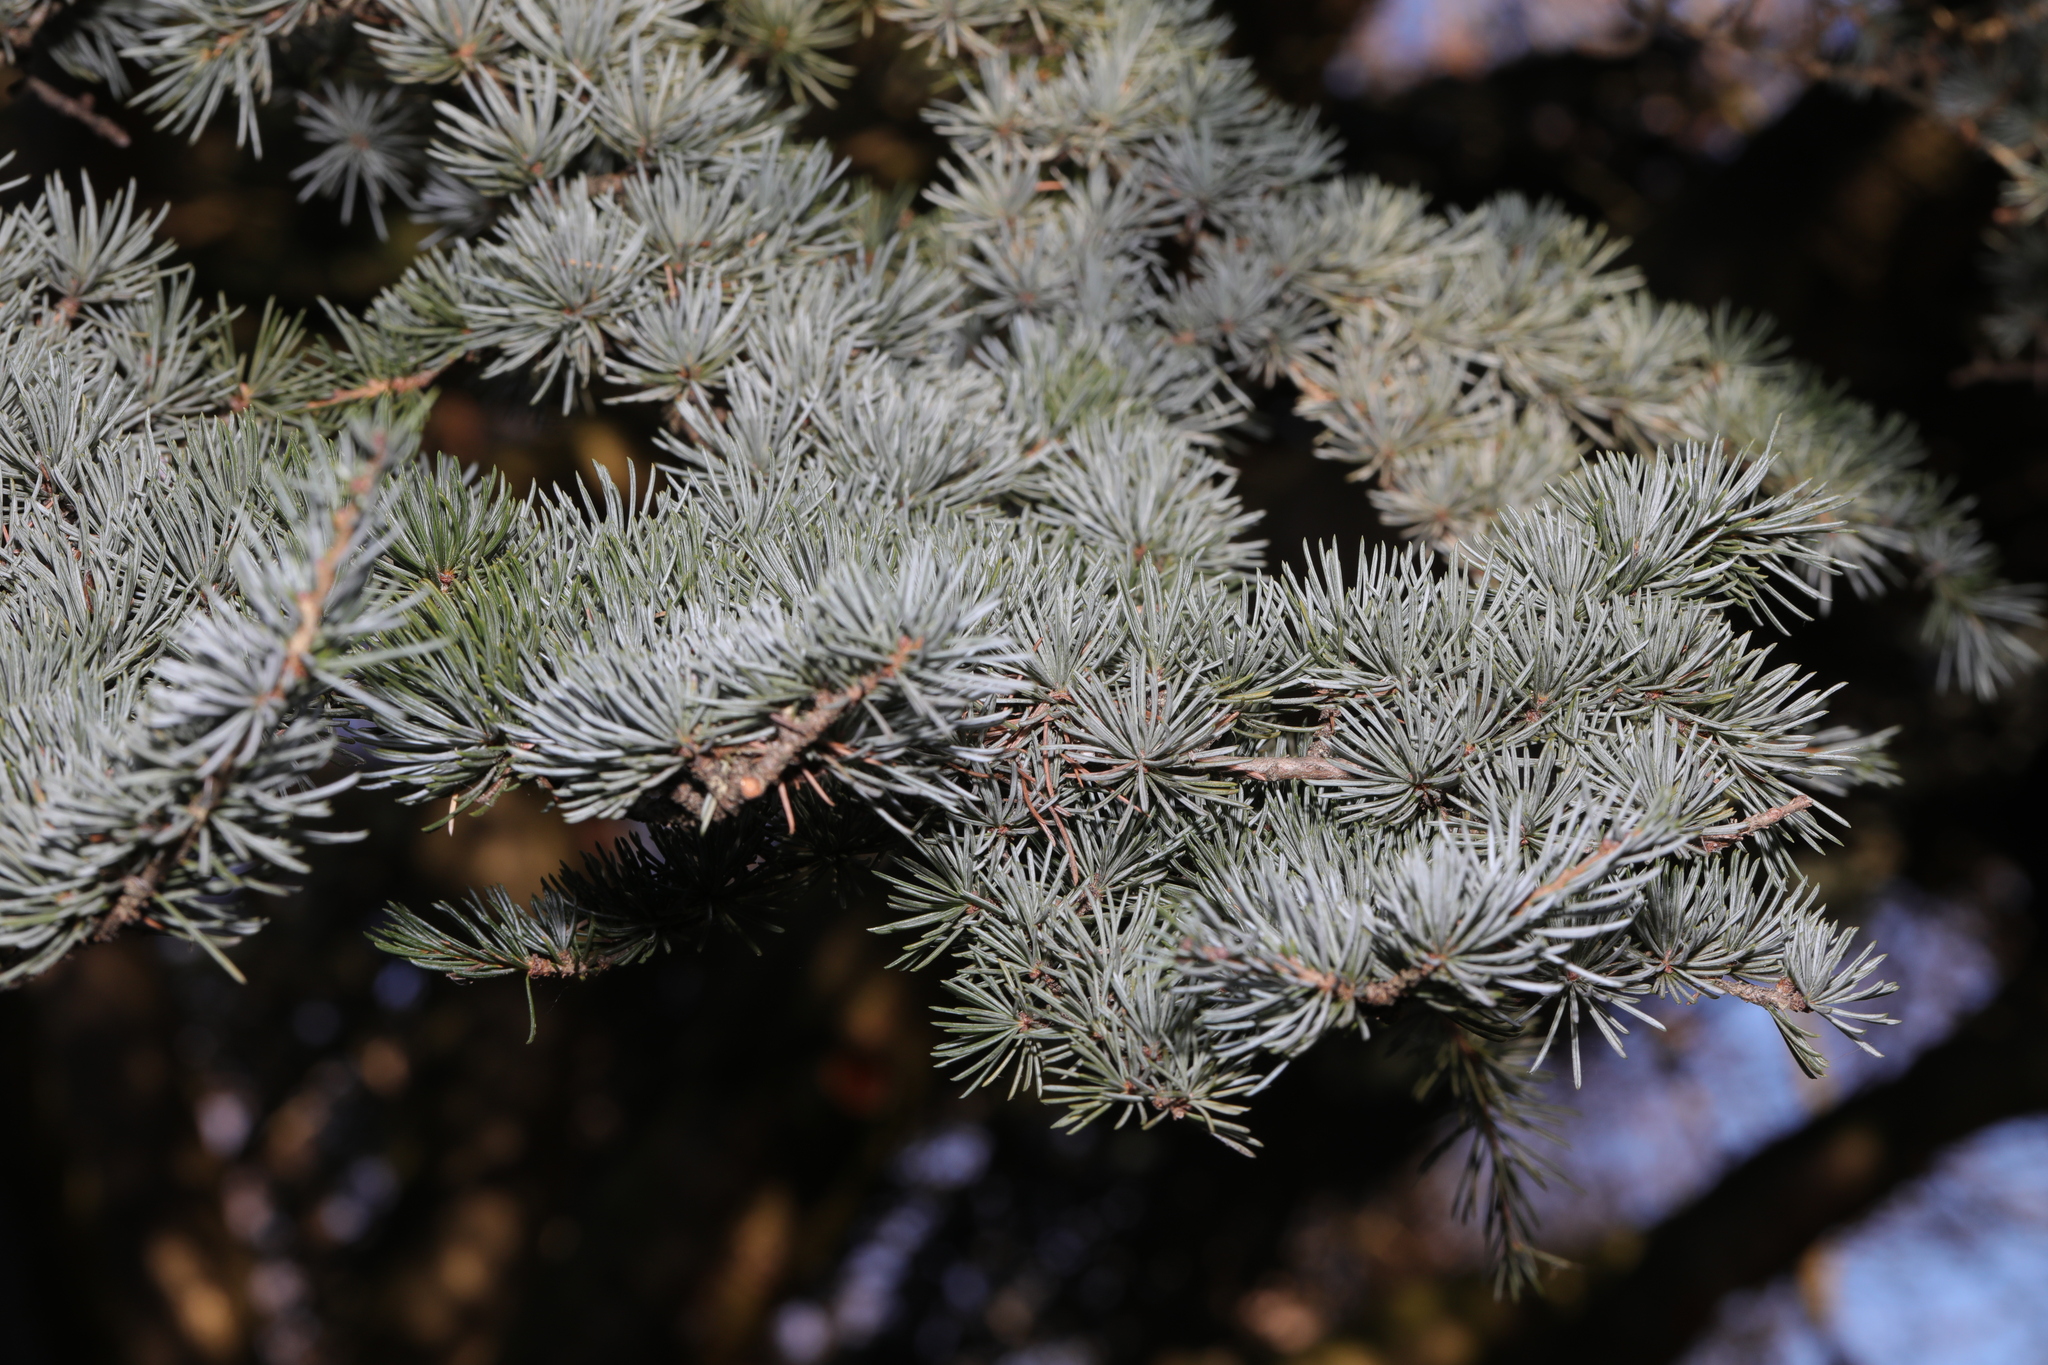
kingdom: Plantae
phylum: Tracheophyta
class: Pinopsida
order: Pinales
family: Pinaceae
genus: Cedrus
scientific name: Cedrus atlantica
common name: Atlas cedar
